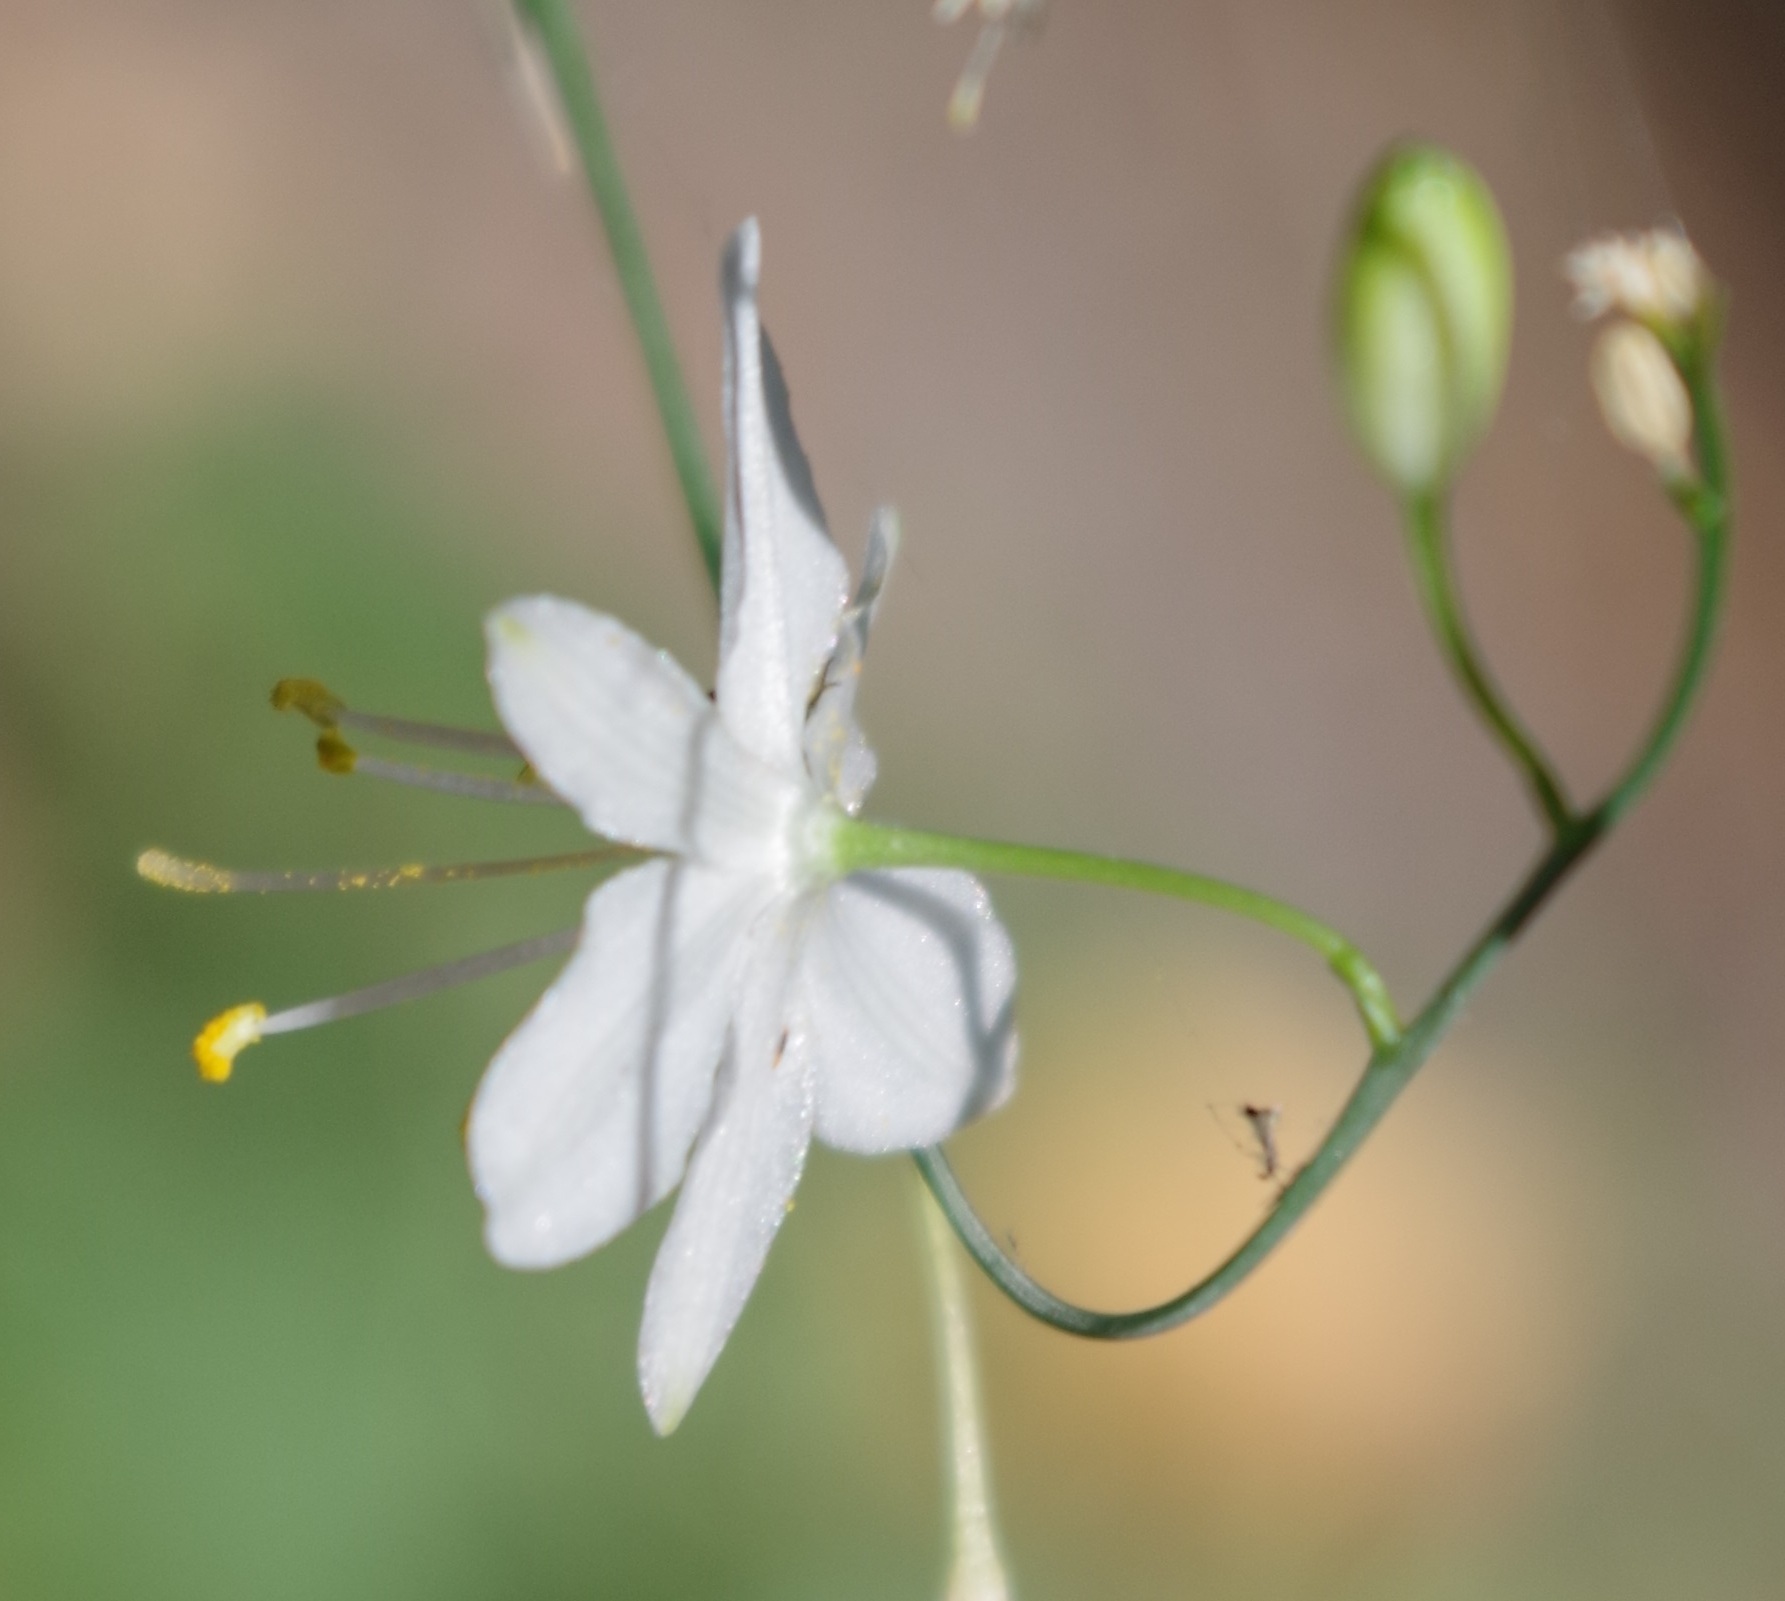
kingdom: Plantae
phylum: Tracheophyta
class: Liliopsida
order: Asparagales
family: Asparagaceae
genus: Anthericum
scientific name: Anthericum ramosum
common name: Branched st. bernard's-lily
